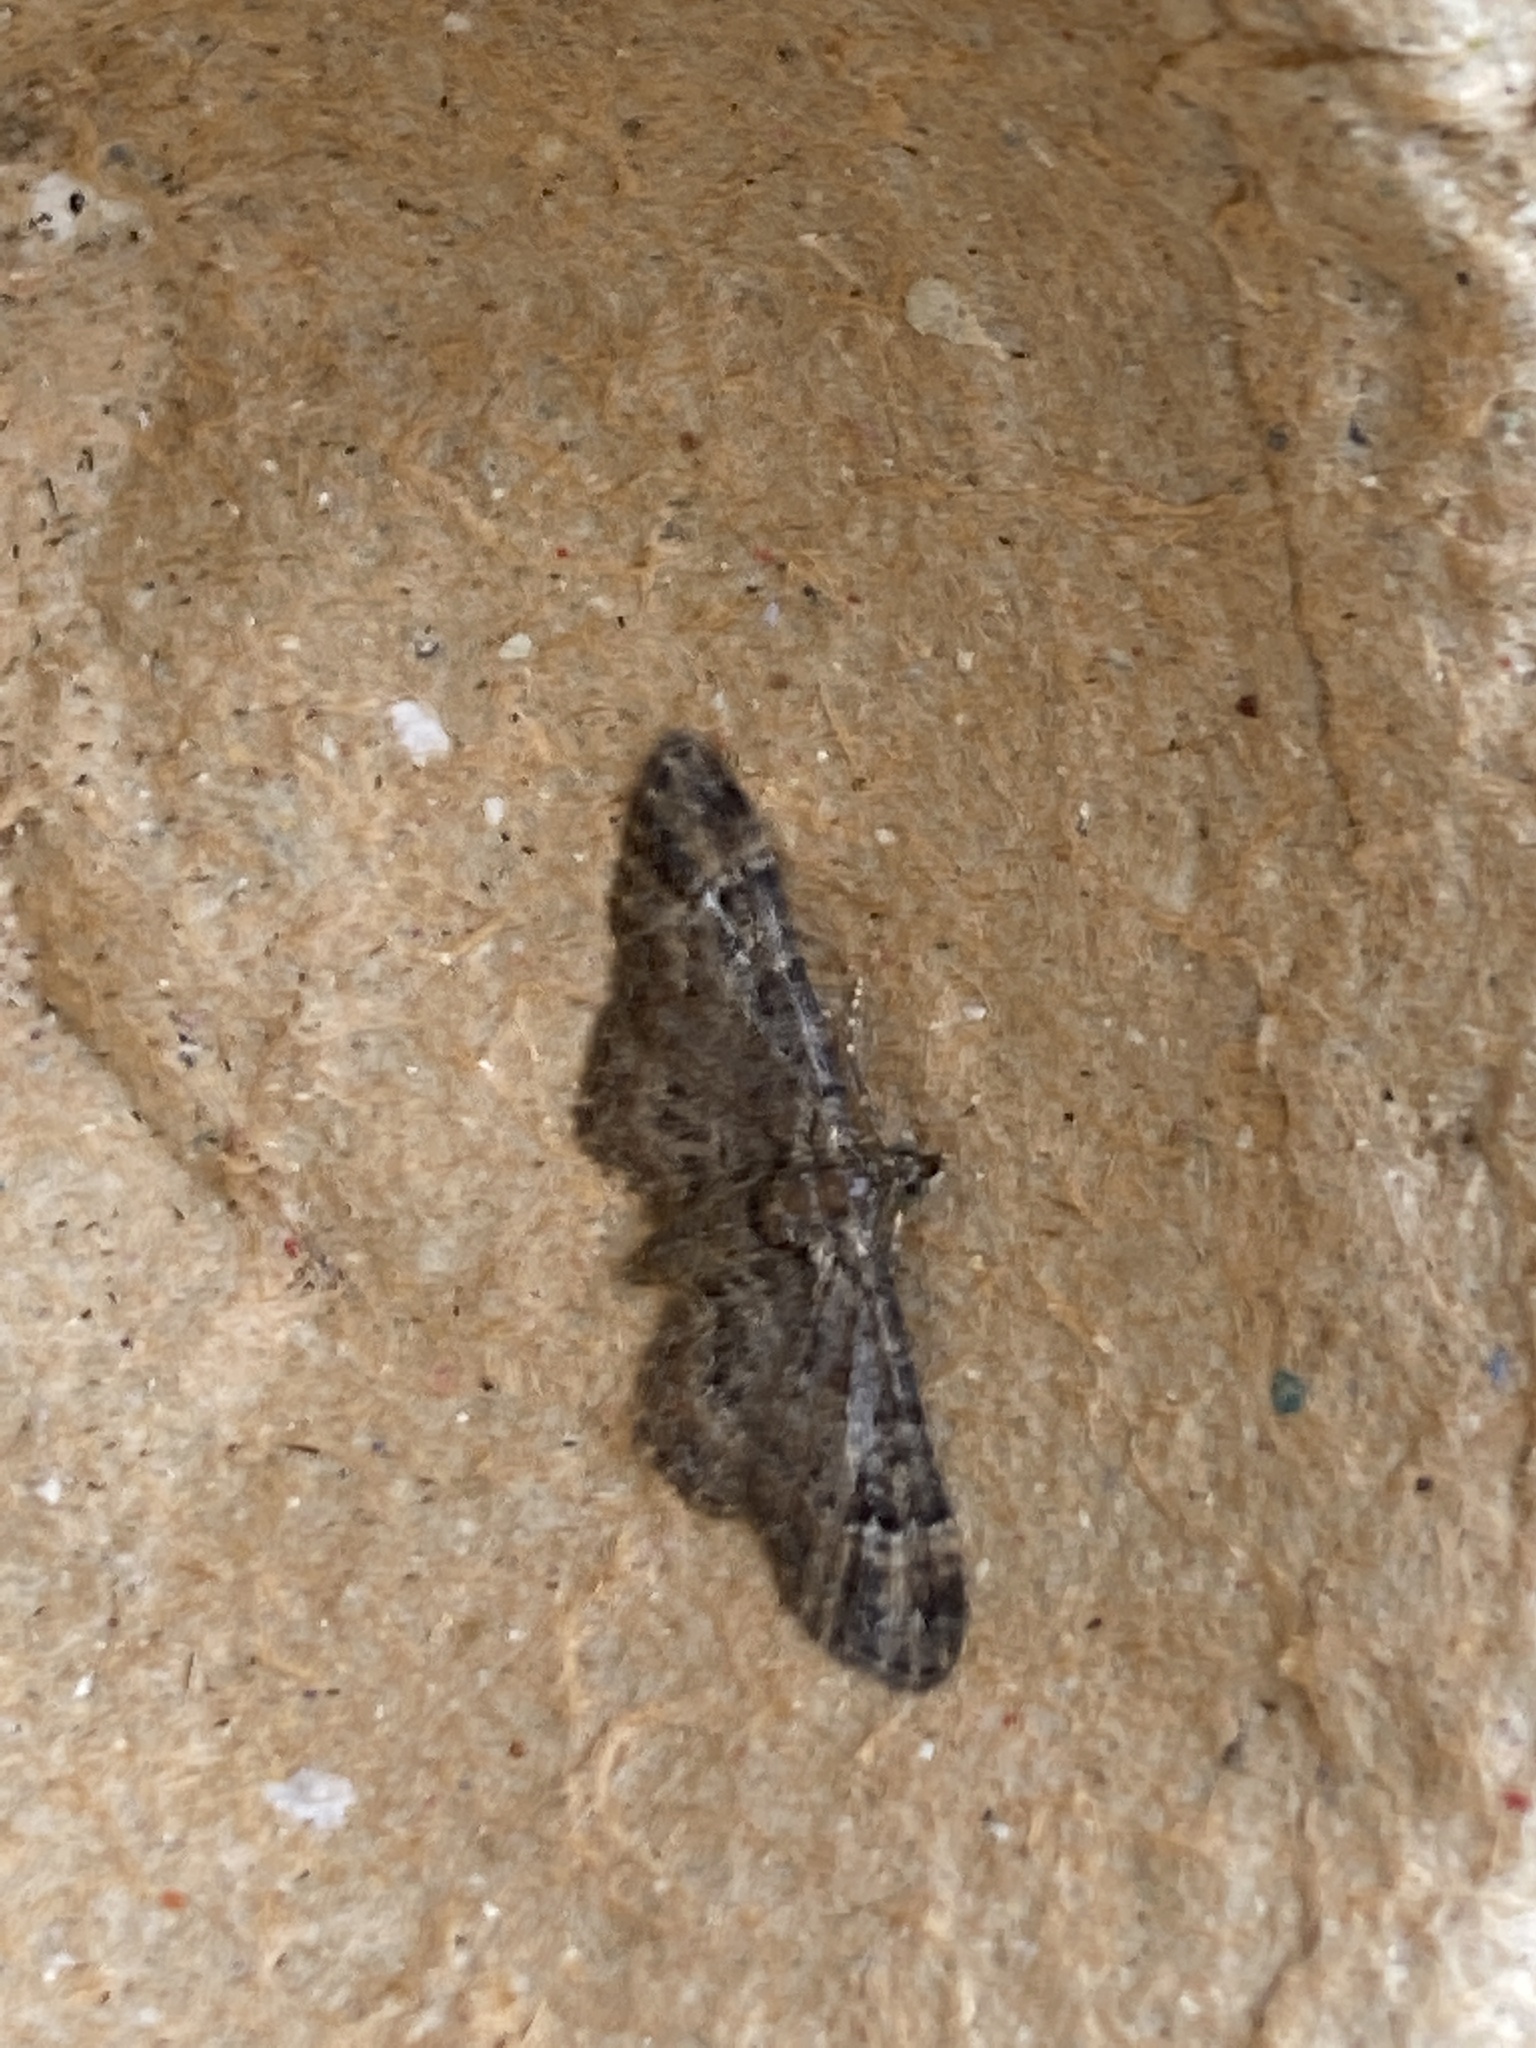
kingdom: Animalia
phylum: Arthropoda
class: Insecta
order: Lepidoptera
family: Geometridae
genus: Gymnoscelis
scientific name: Gymnoscelis rufifasciata
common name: Double-striped pug
